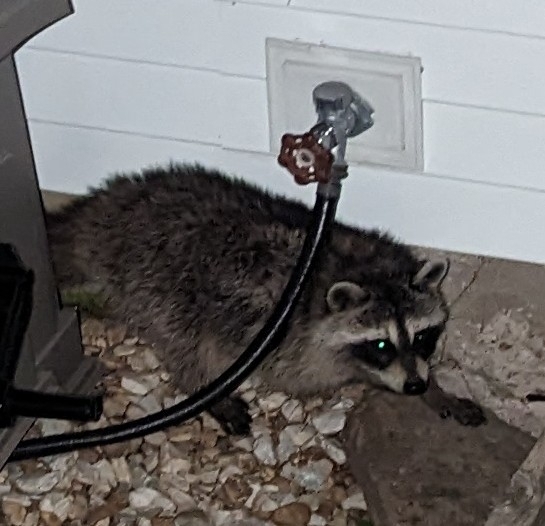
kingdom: Animalia
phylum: Chordata
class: Mammalia
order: Carnivora
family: Procyonidae
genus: Procyon
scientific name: Procyon lotor
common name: Raccoon
